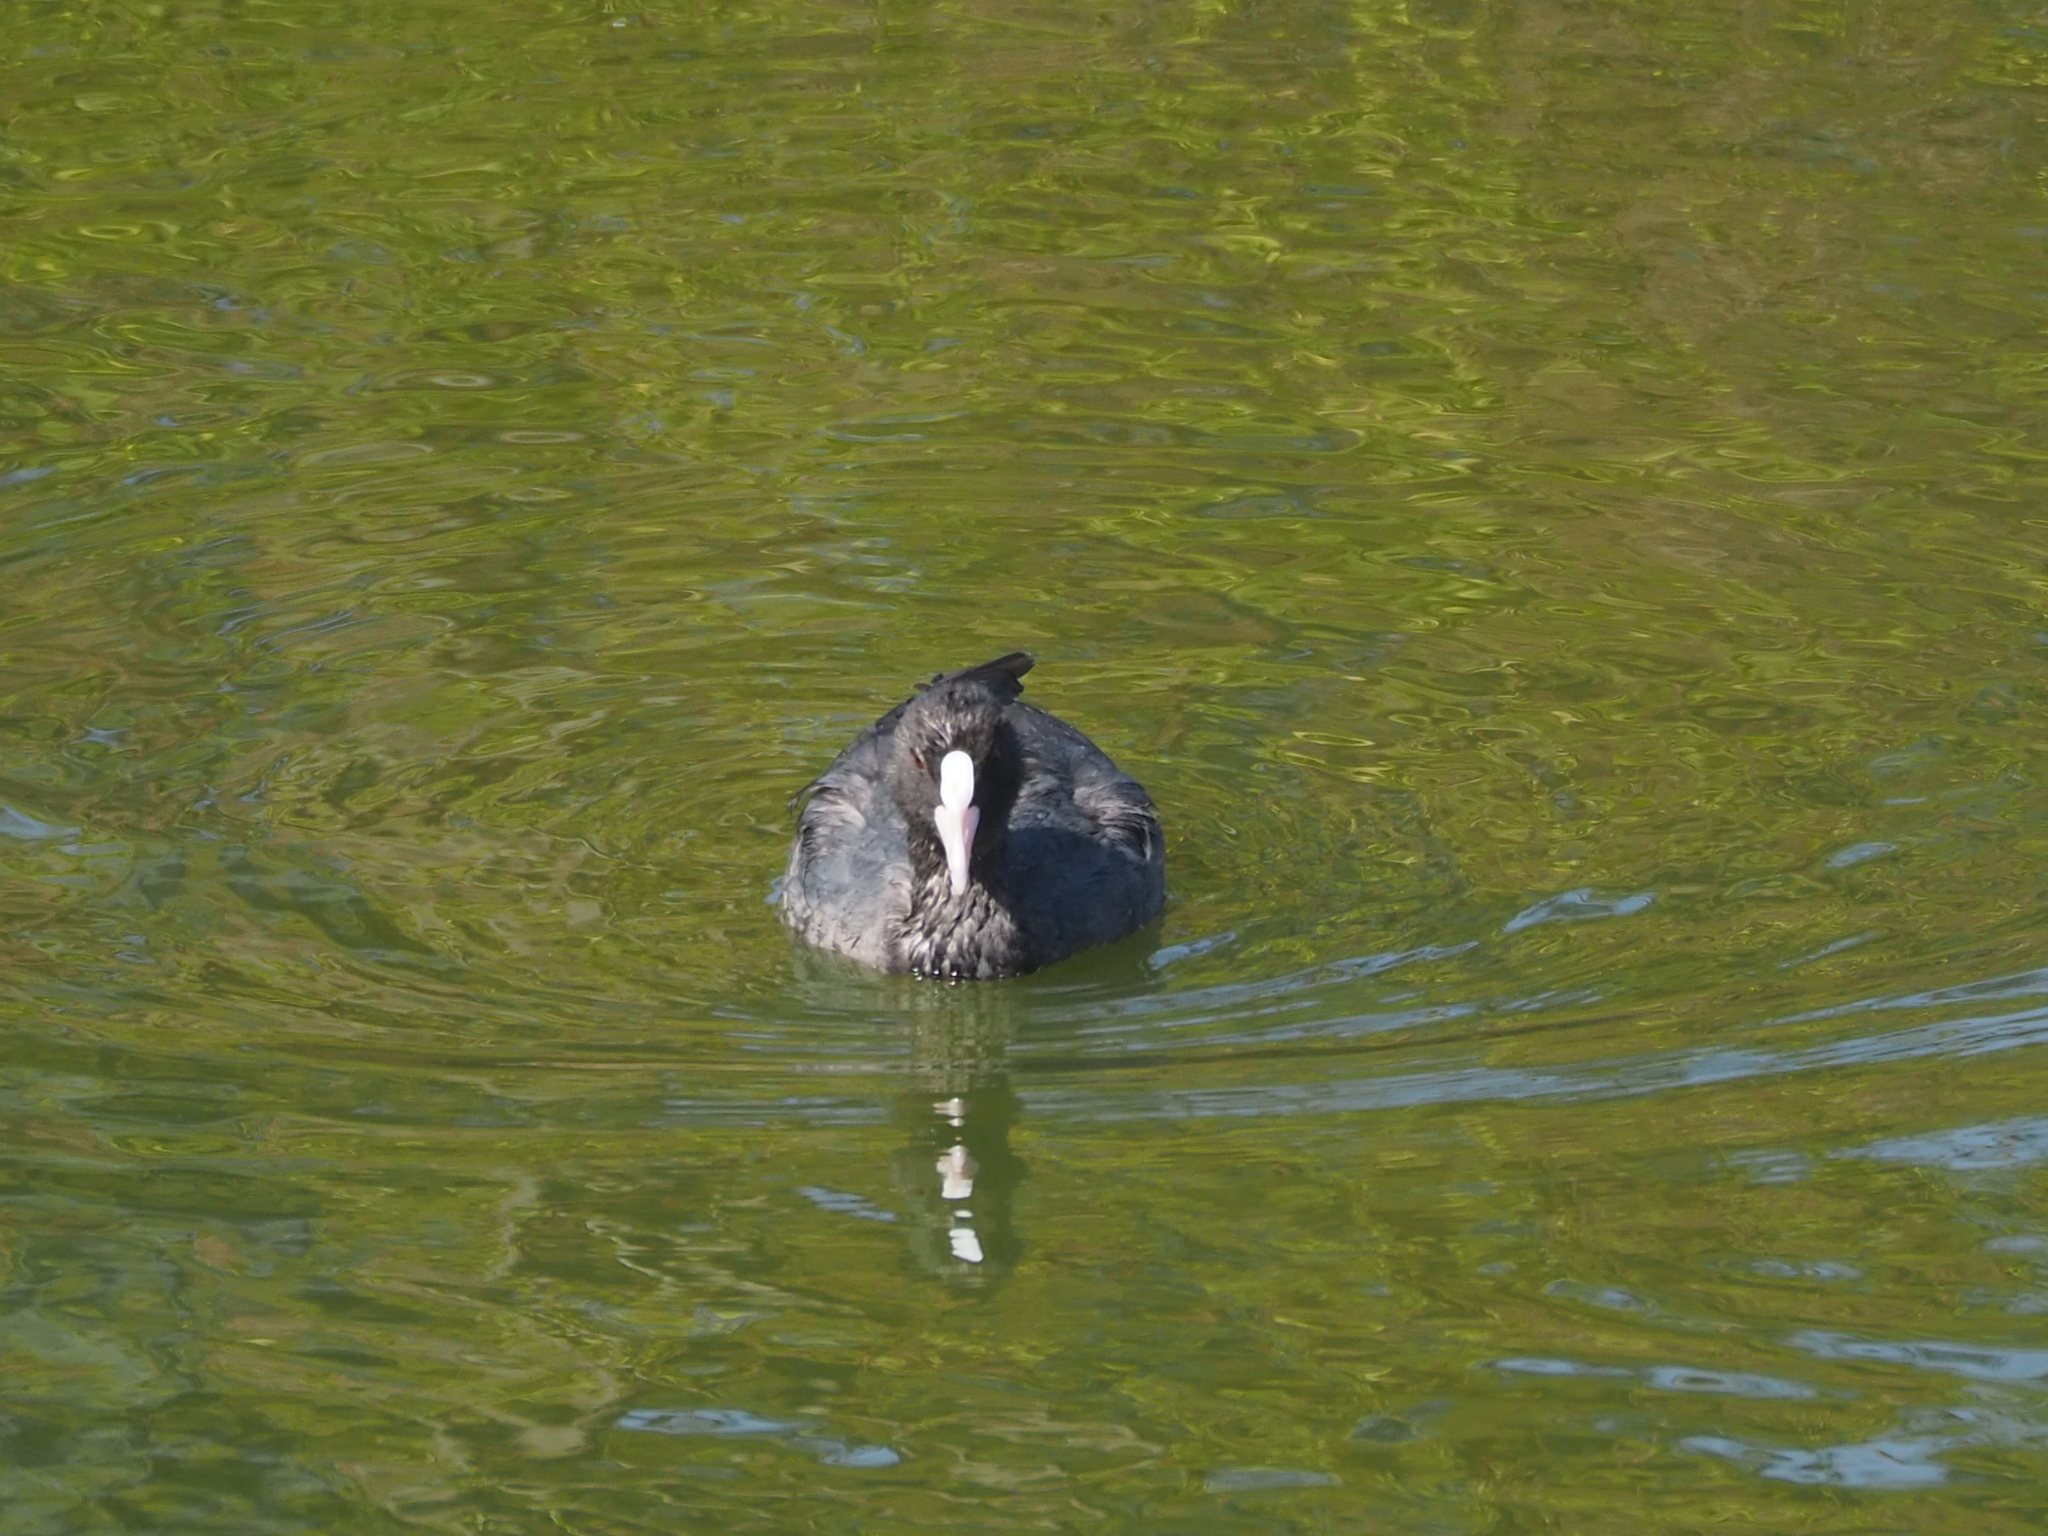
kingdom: Animalia
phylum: Chordata
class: Aves
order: Gruiformes
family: Rallidae
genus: Fulica
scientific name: Fulica atra
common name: Eurasian coot
